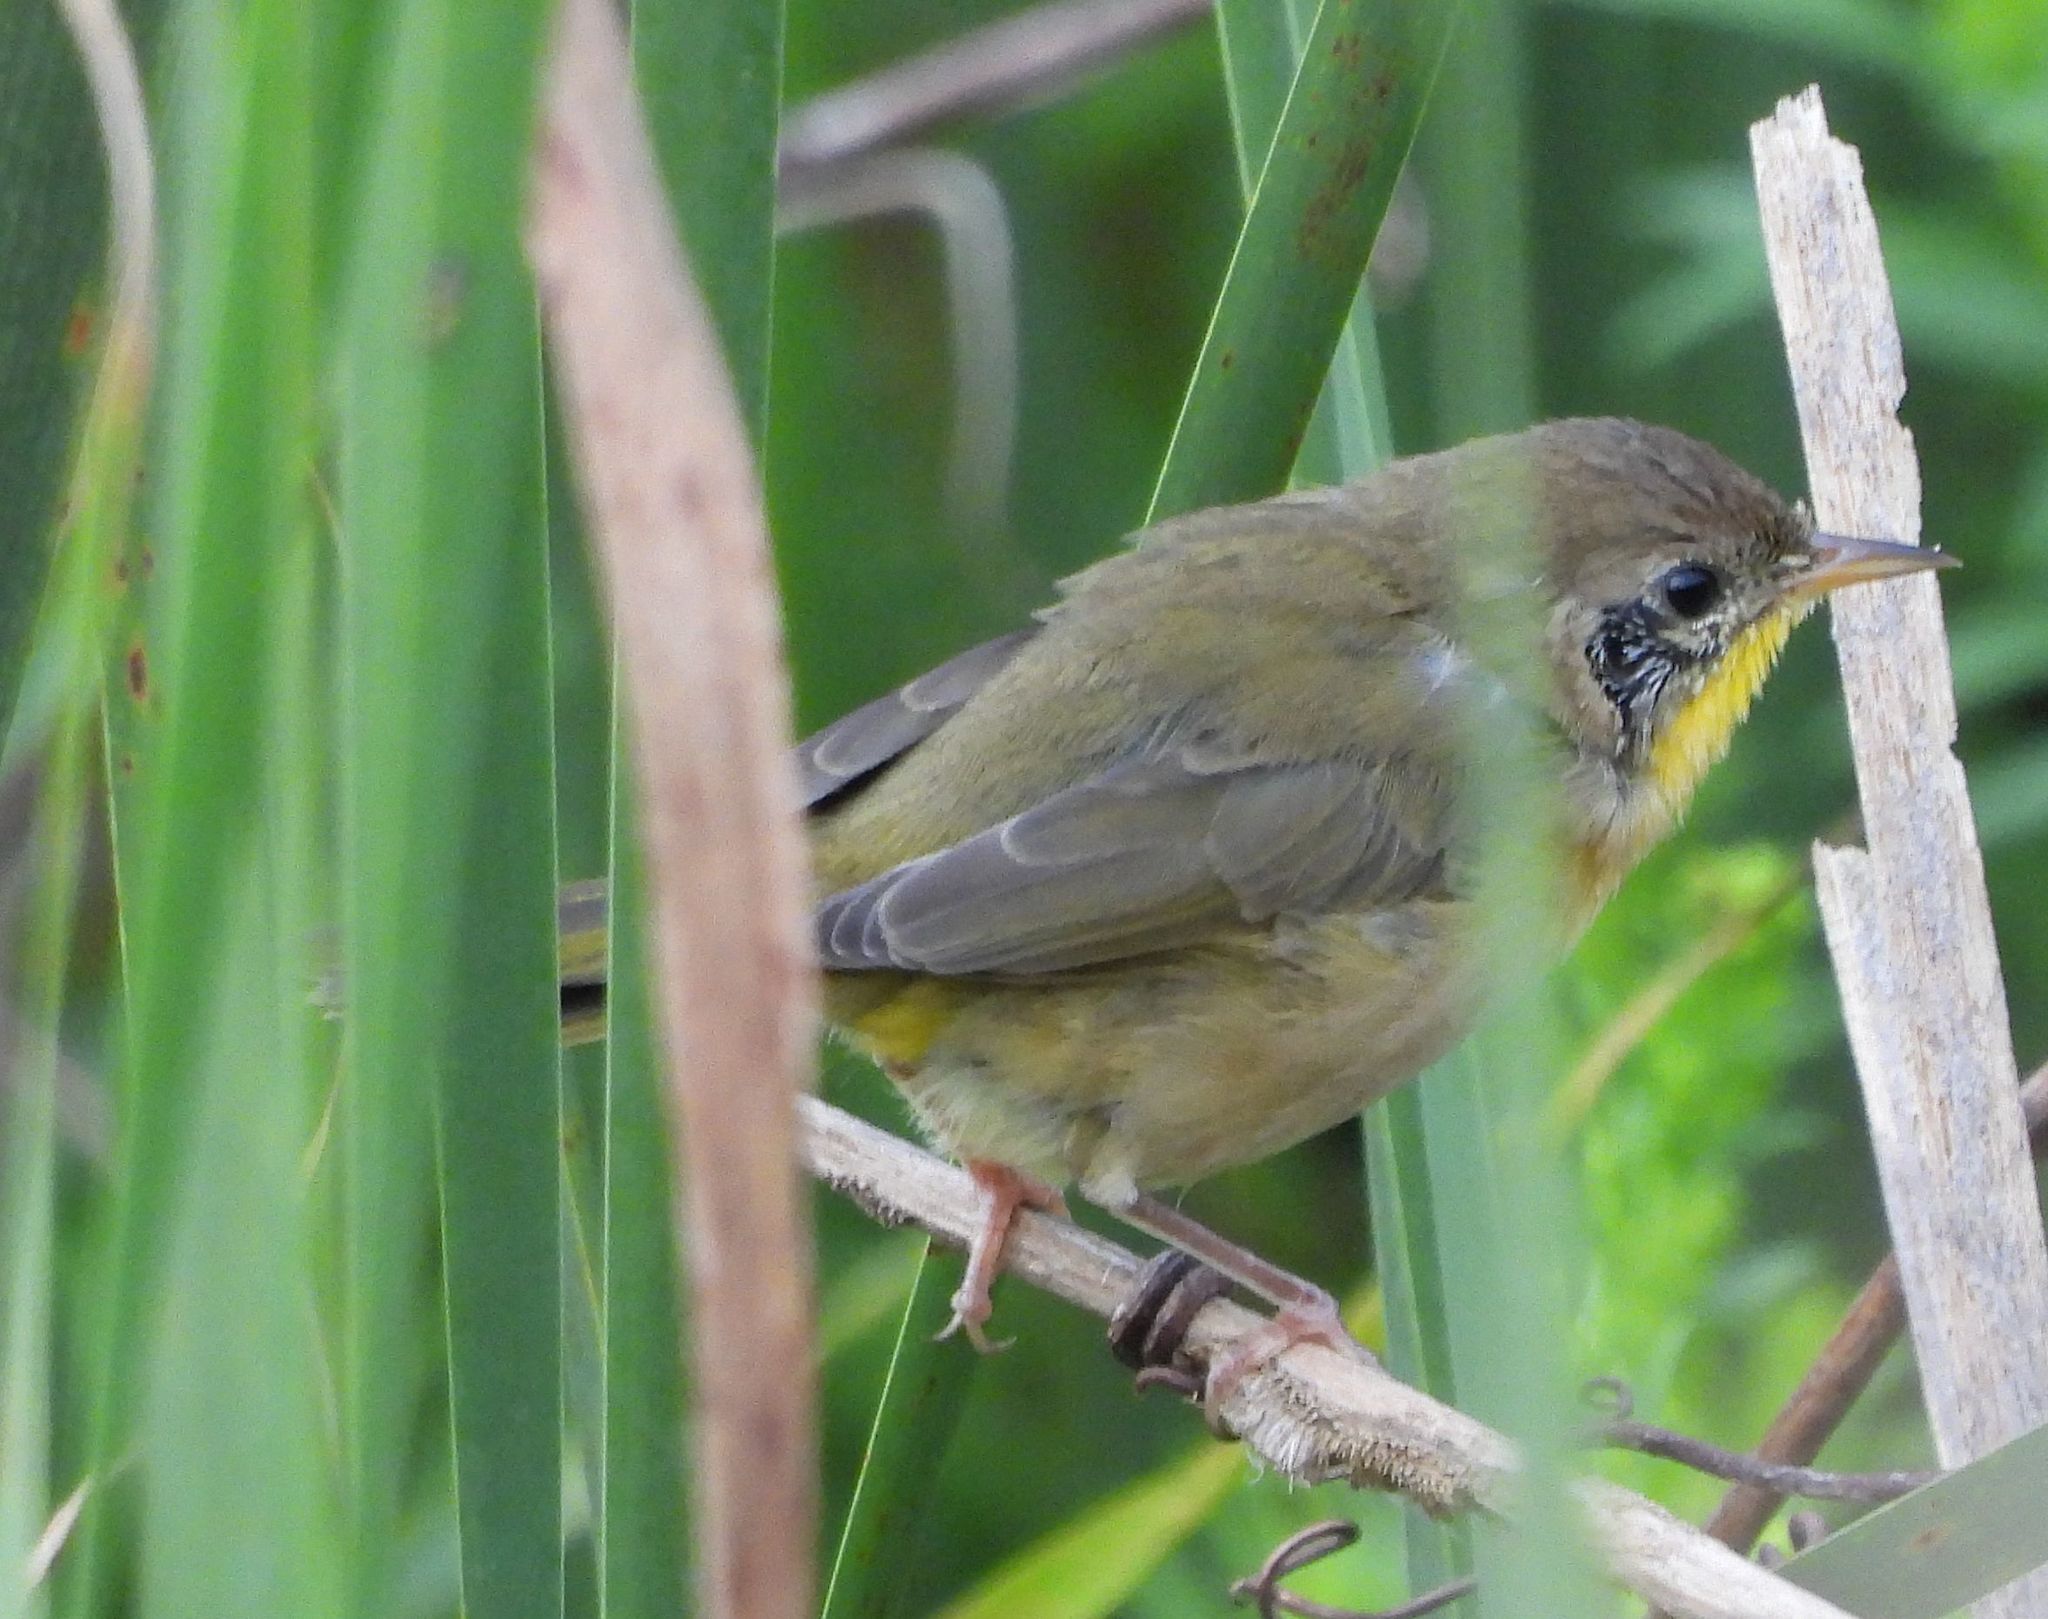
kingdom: Animalia
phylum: Chordata
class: Aves
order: Passeriformes
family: Parulidae
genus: Geothlypis
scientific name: Geothlypis trichas
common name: Common yellowthroat
